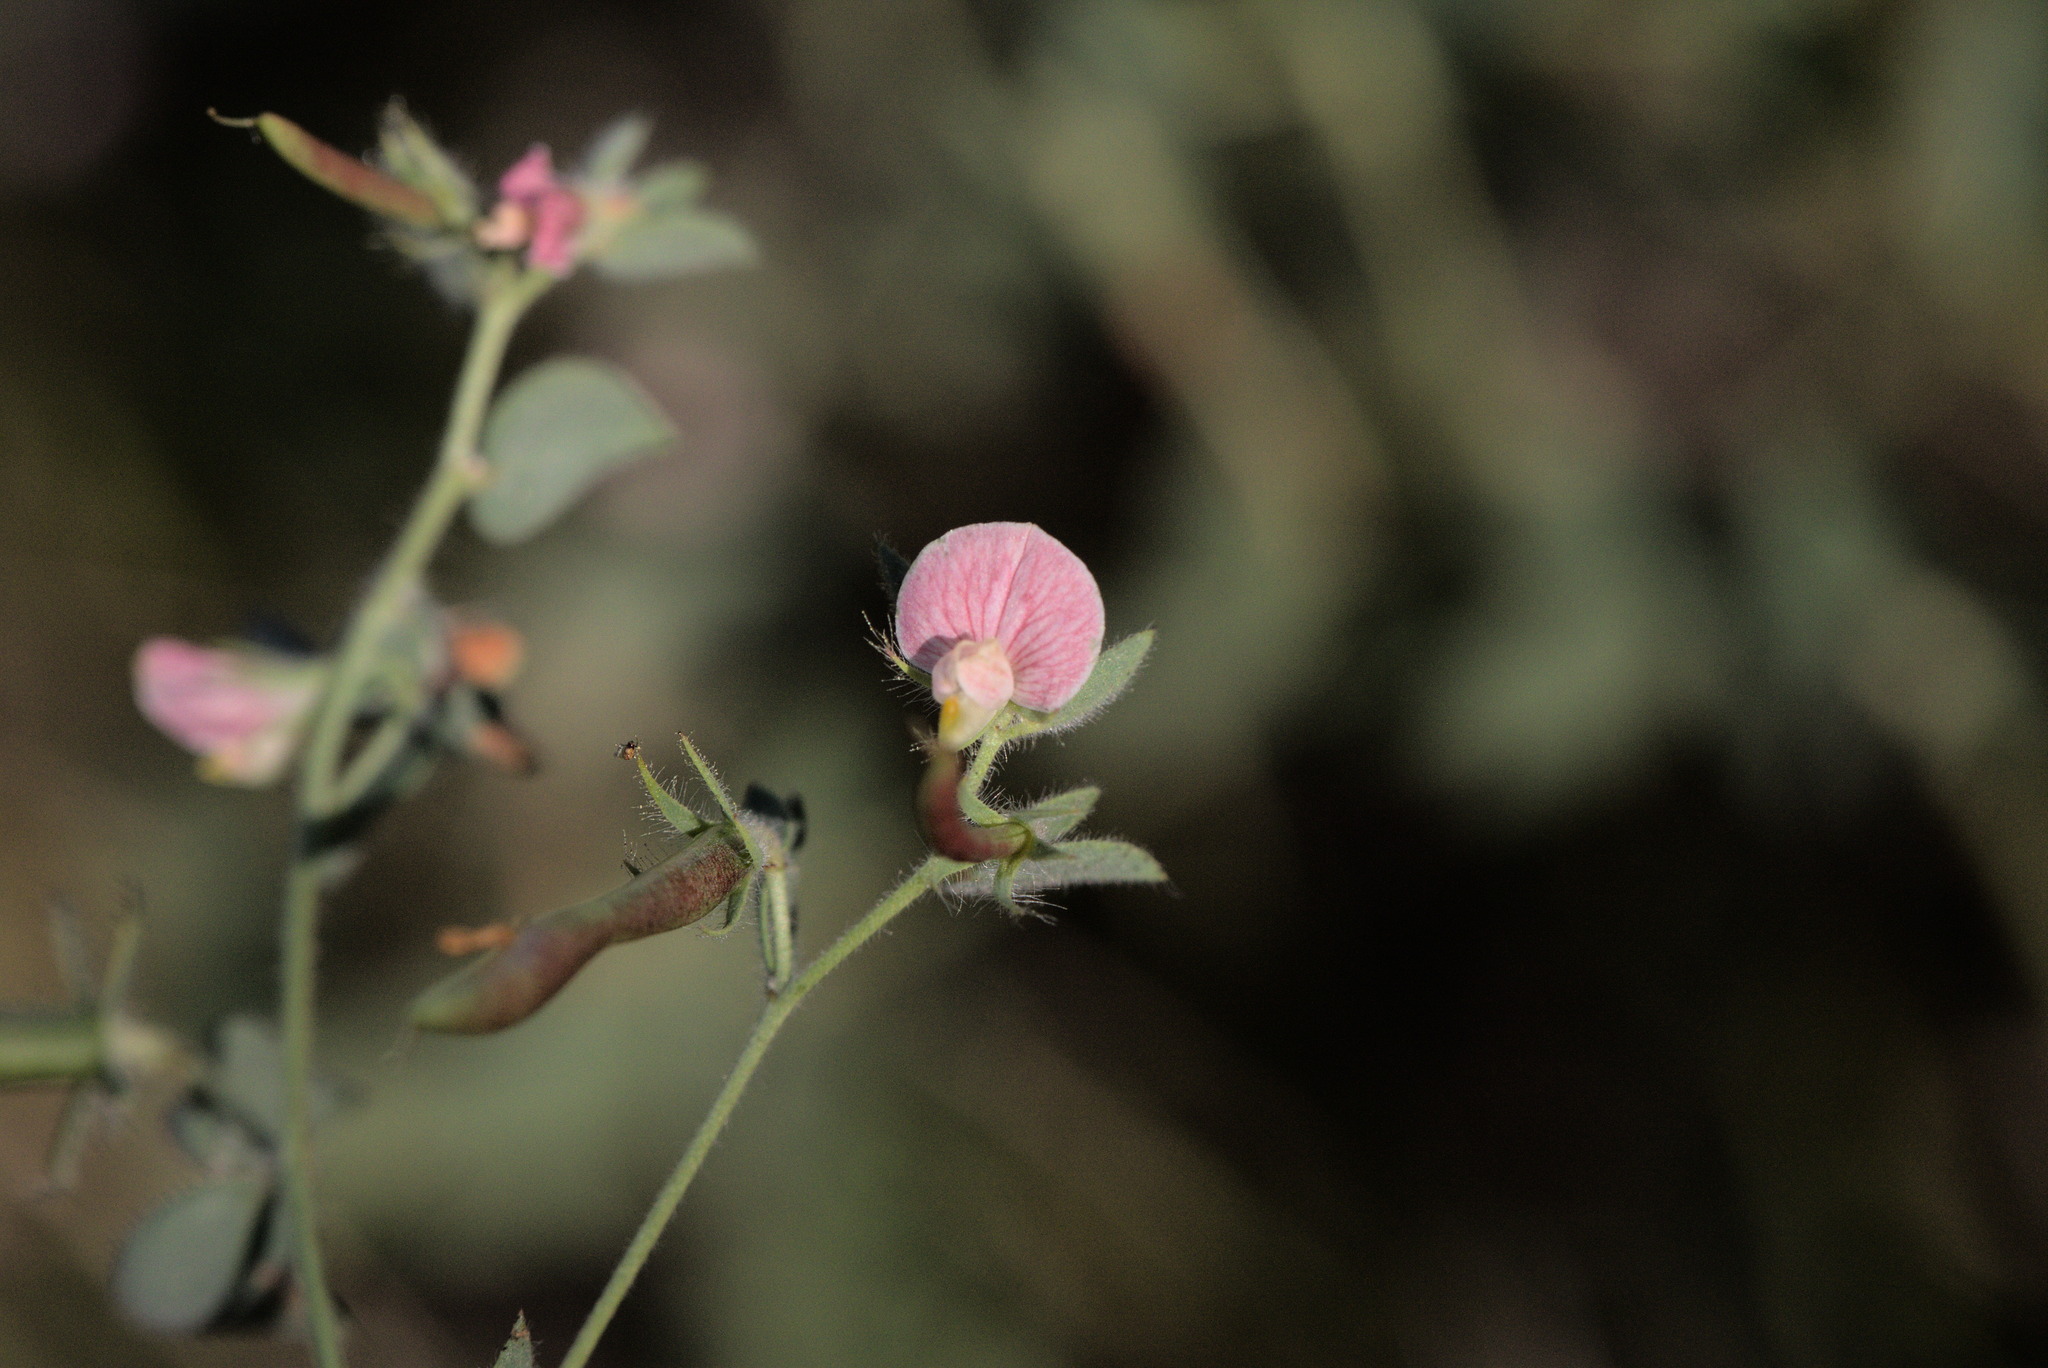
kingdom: Plantae
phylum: Tracheophyta
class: Magnoliopsida
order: Fabales
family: Fabaceae
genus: Acmispon
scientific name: Acmispon americanus
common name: American bird's-foot trefoil
